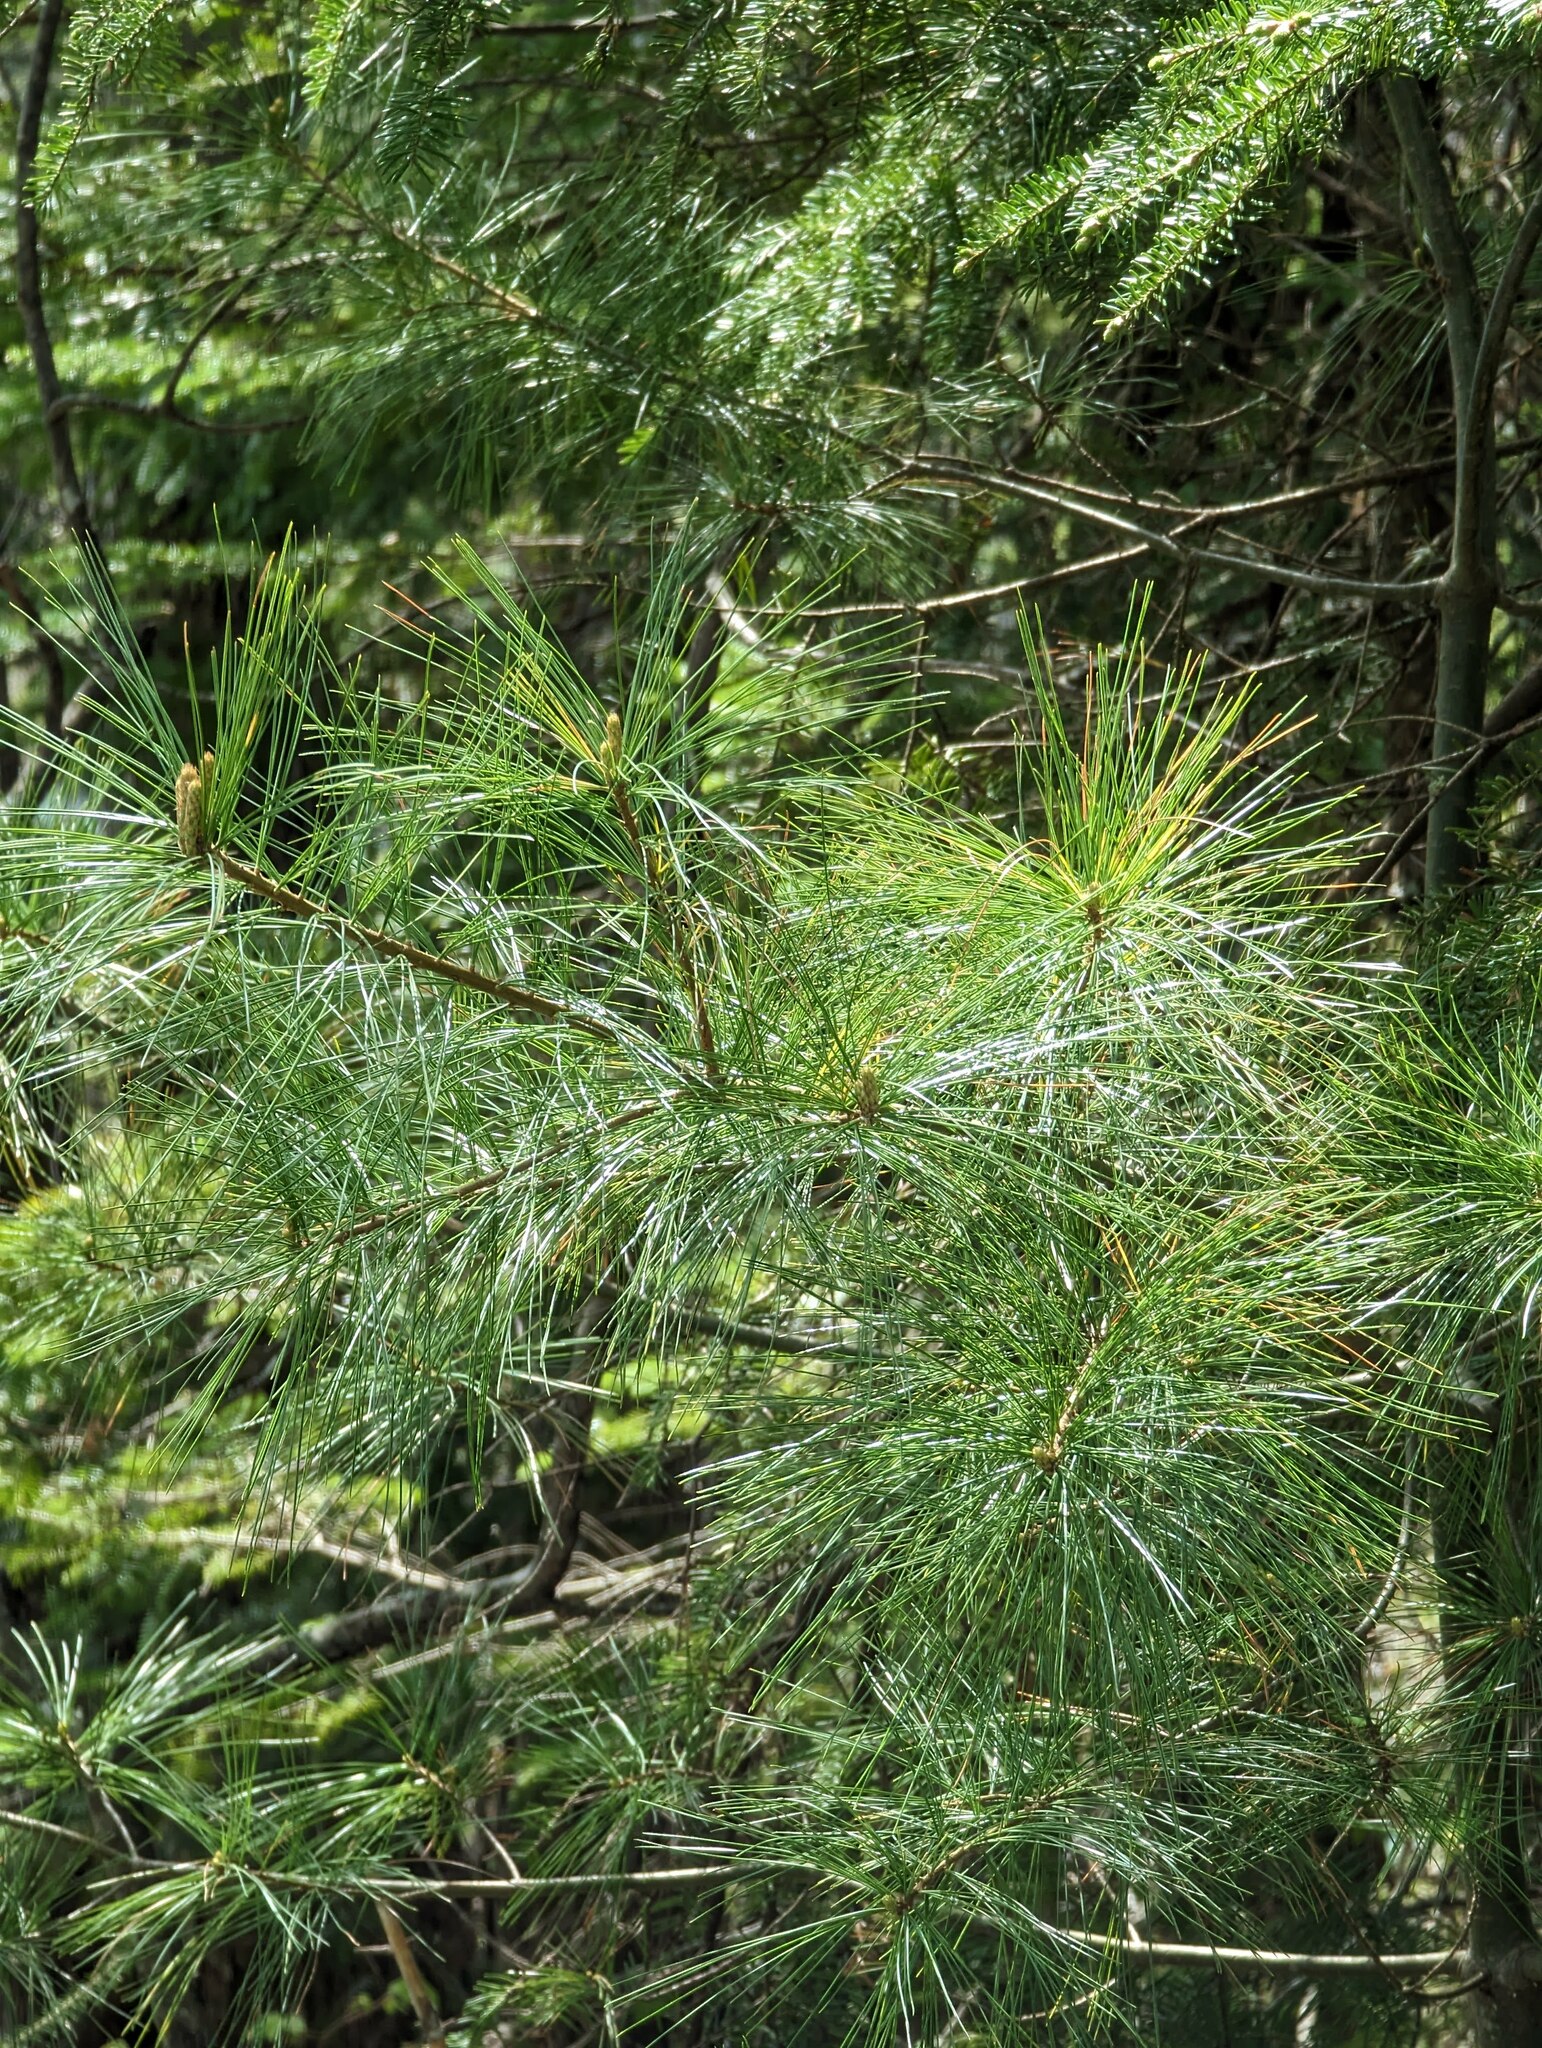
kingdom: Plantae
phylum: Tracheophyta
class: Pinopsida
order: Pinales
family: Pinaceae
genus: Pinus
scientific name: Pinus strobus
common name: Weymouth pine
